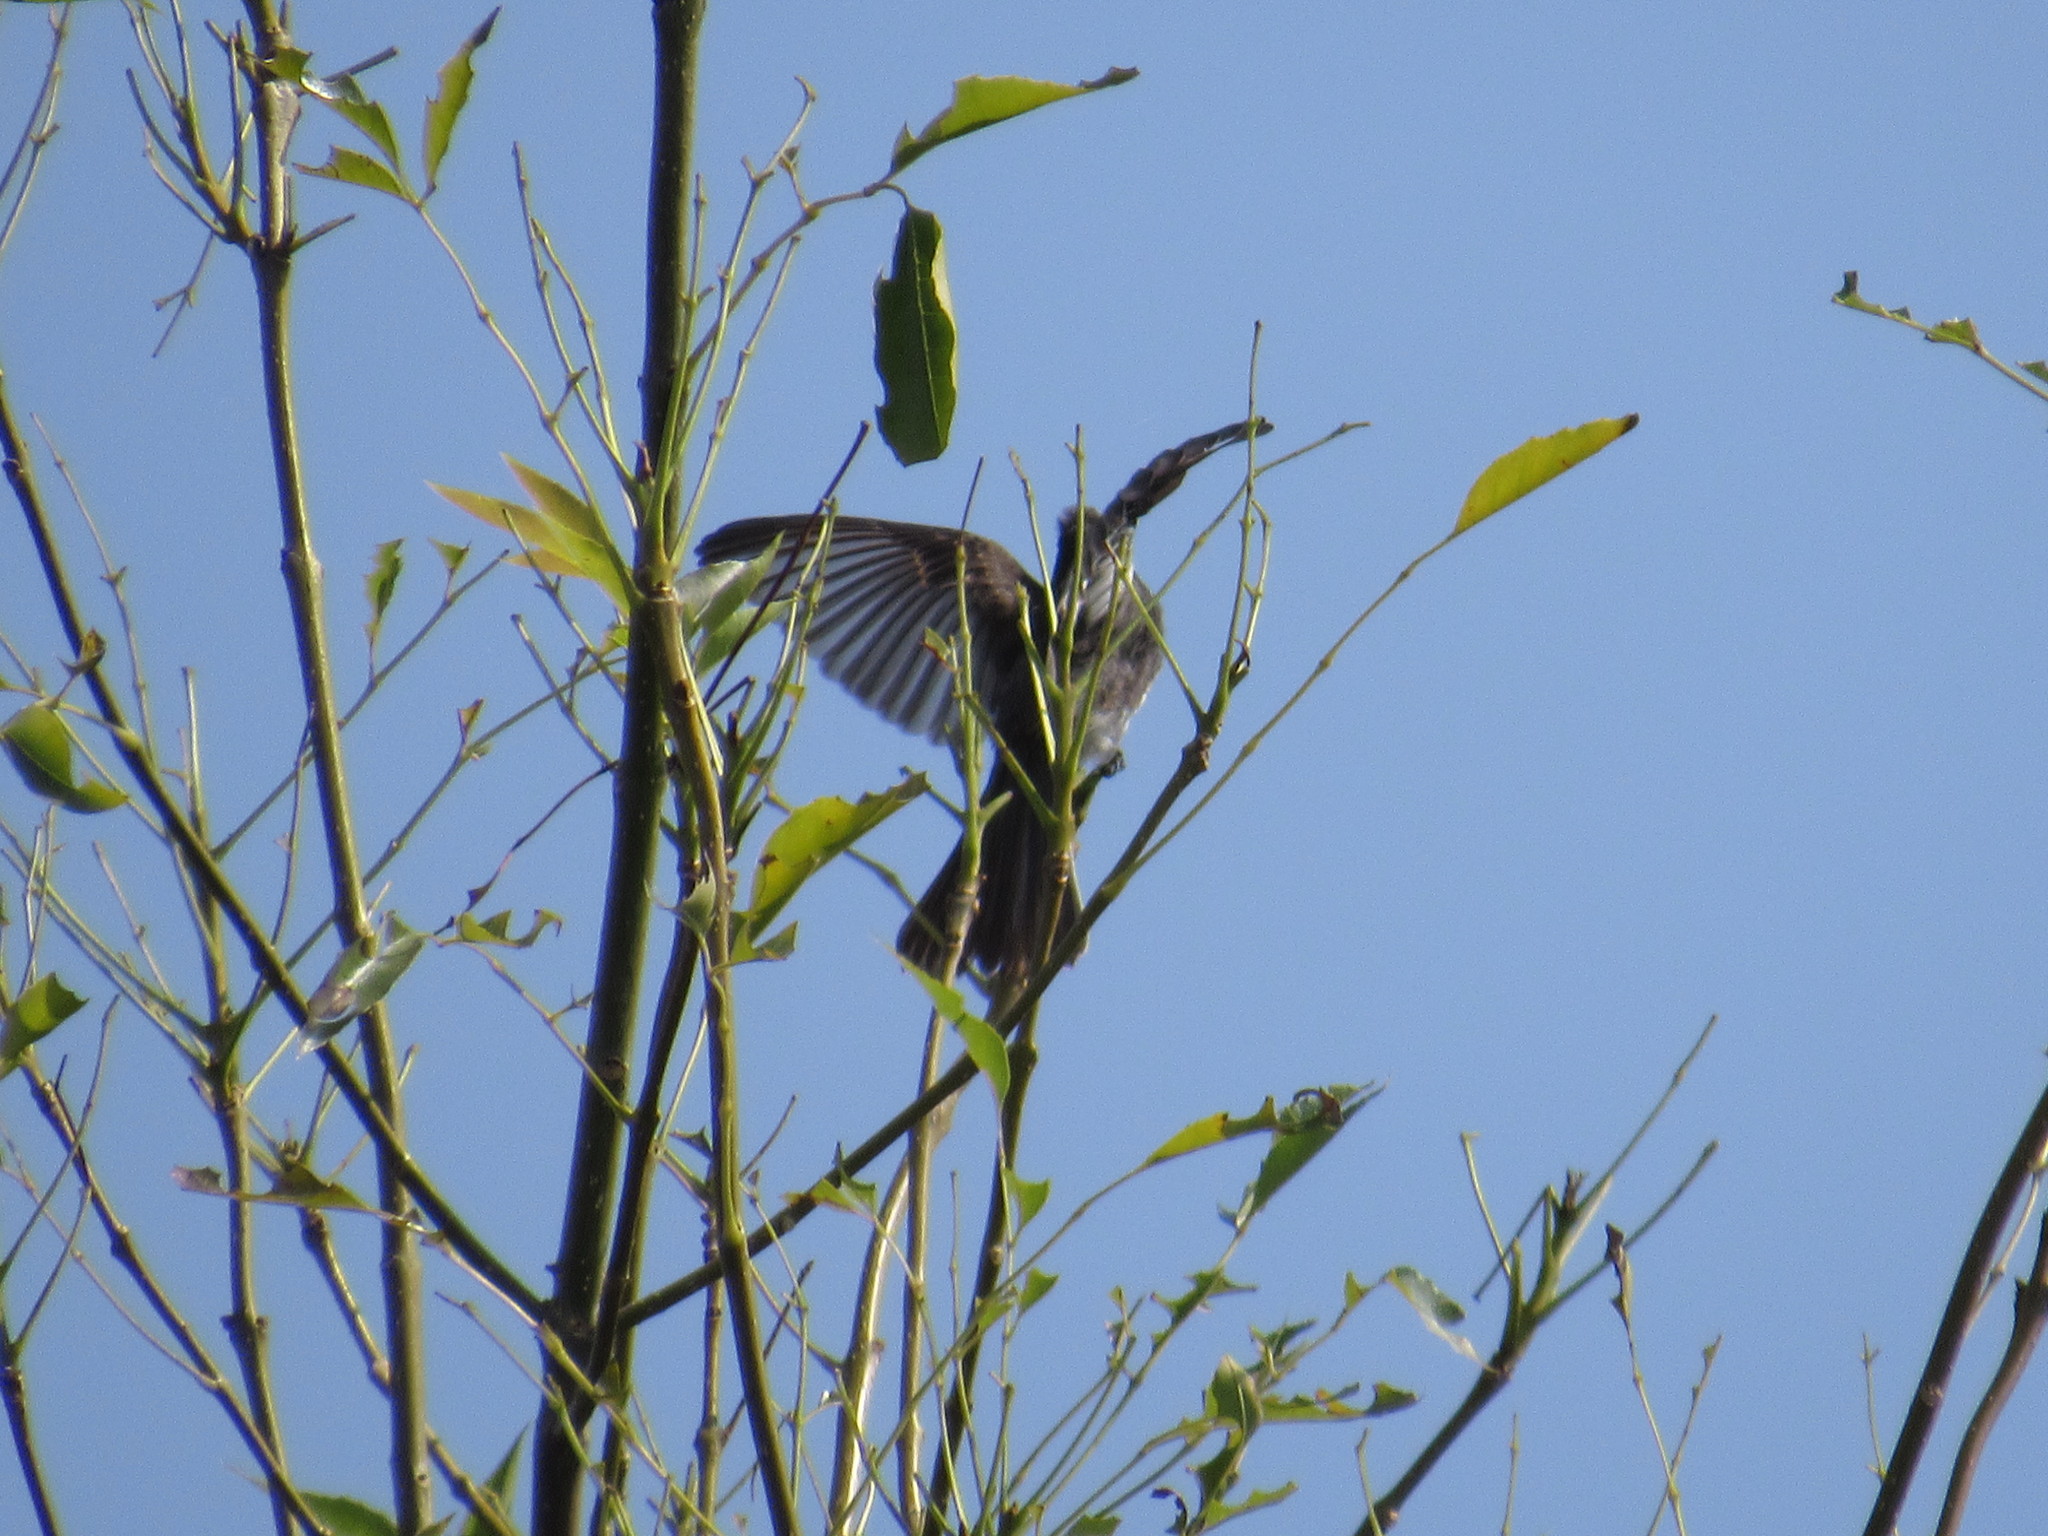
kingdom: Animalia
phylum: Chordata
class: Aves
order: Passeriformes
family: Tyrannidae
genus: Sayornis
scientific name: Sayornis nigricans
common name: Black phoebe
